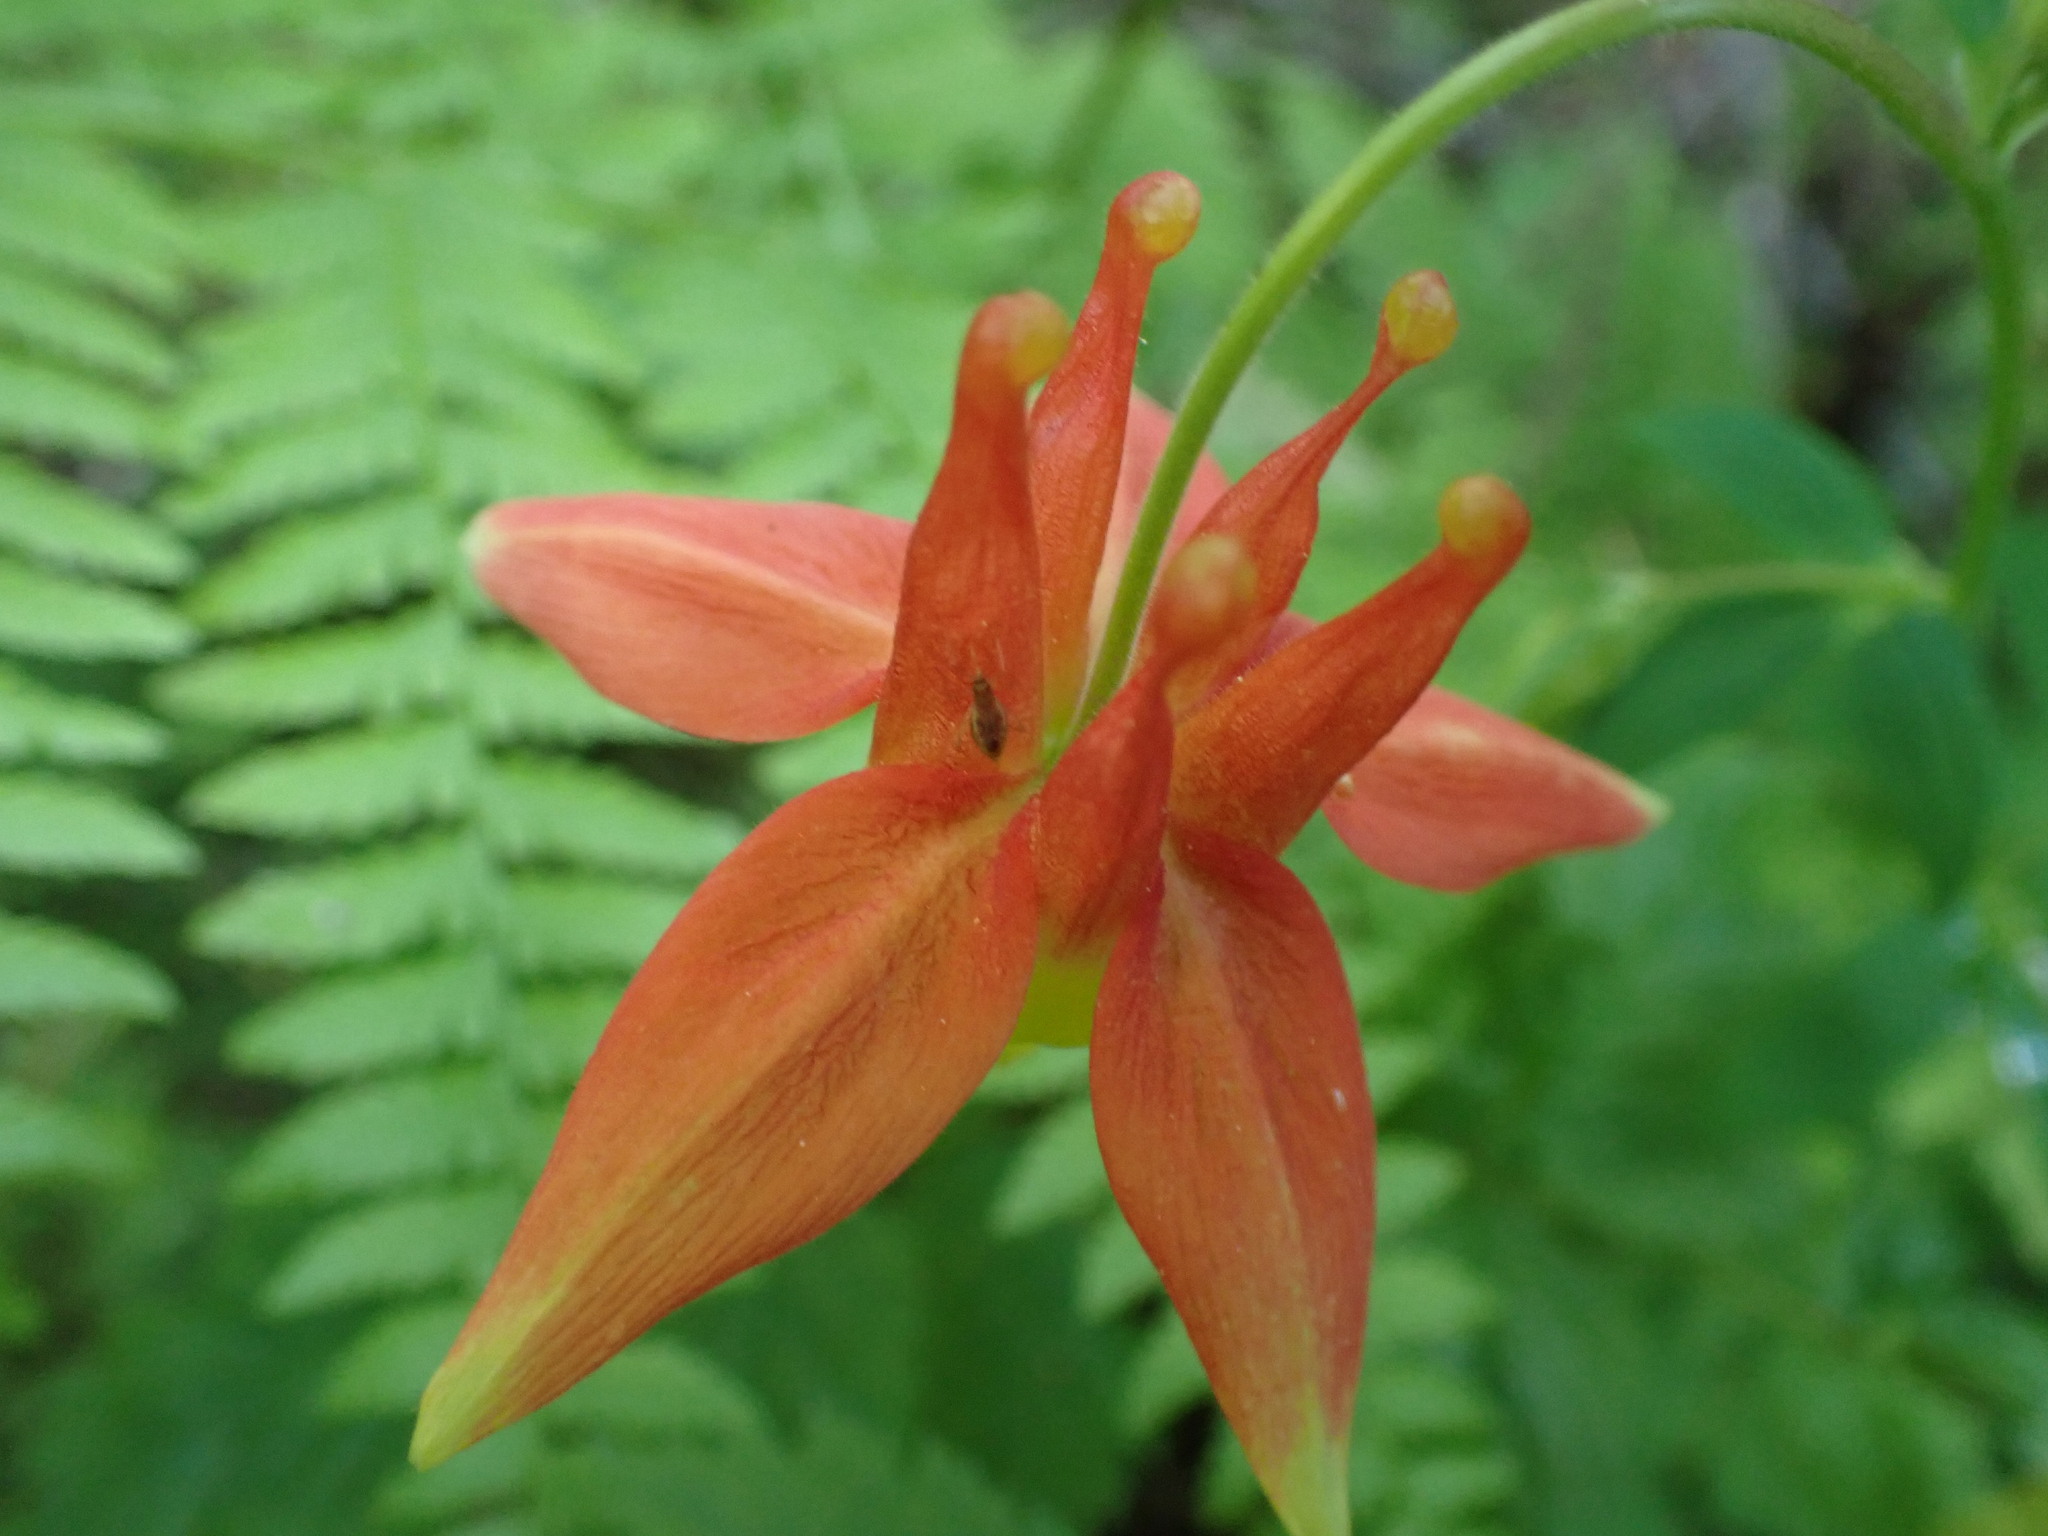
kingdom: Plantae
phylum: Tracheophyta
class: Magnoliopsida
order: Ranunculales
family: Ranunculaceae
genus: Aquilegia
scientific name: Aquilegia formosa
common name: Sitka columbine
